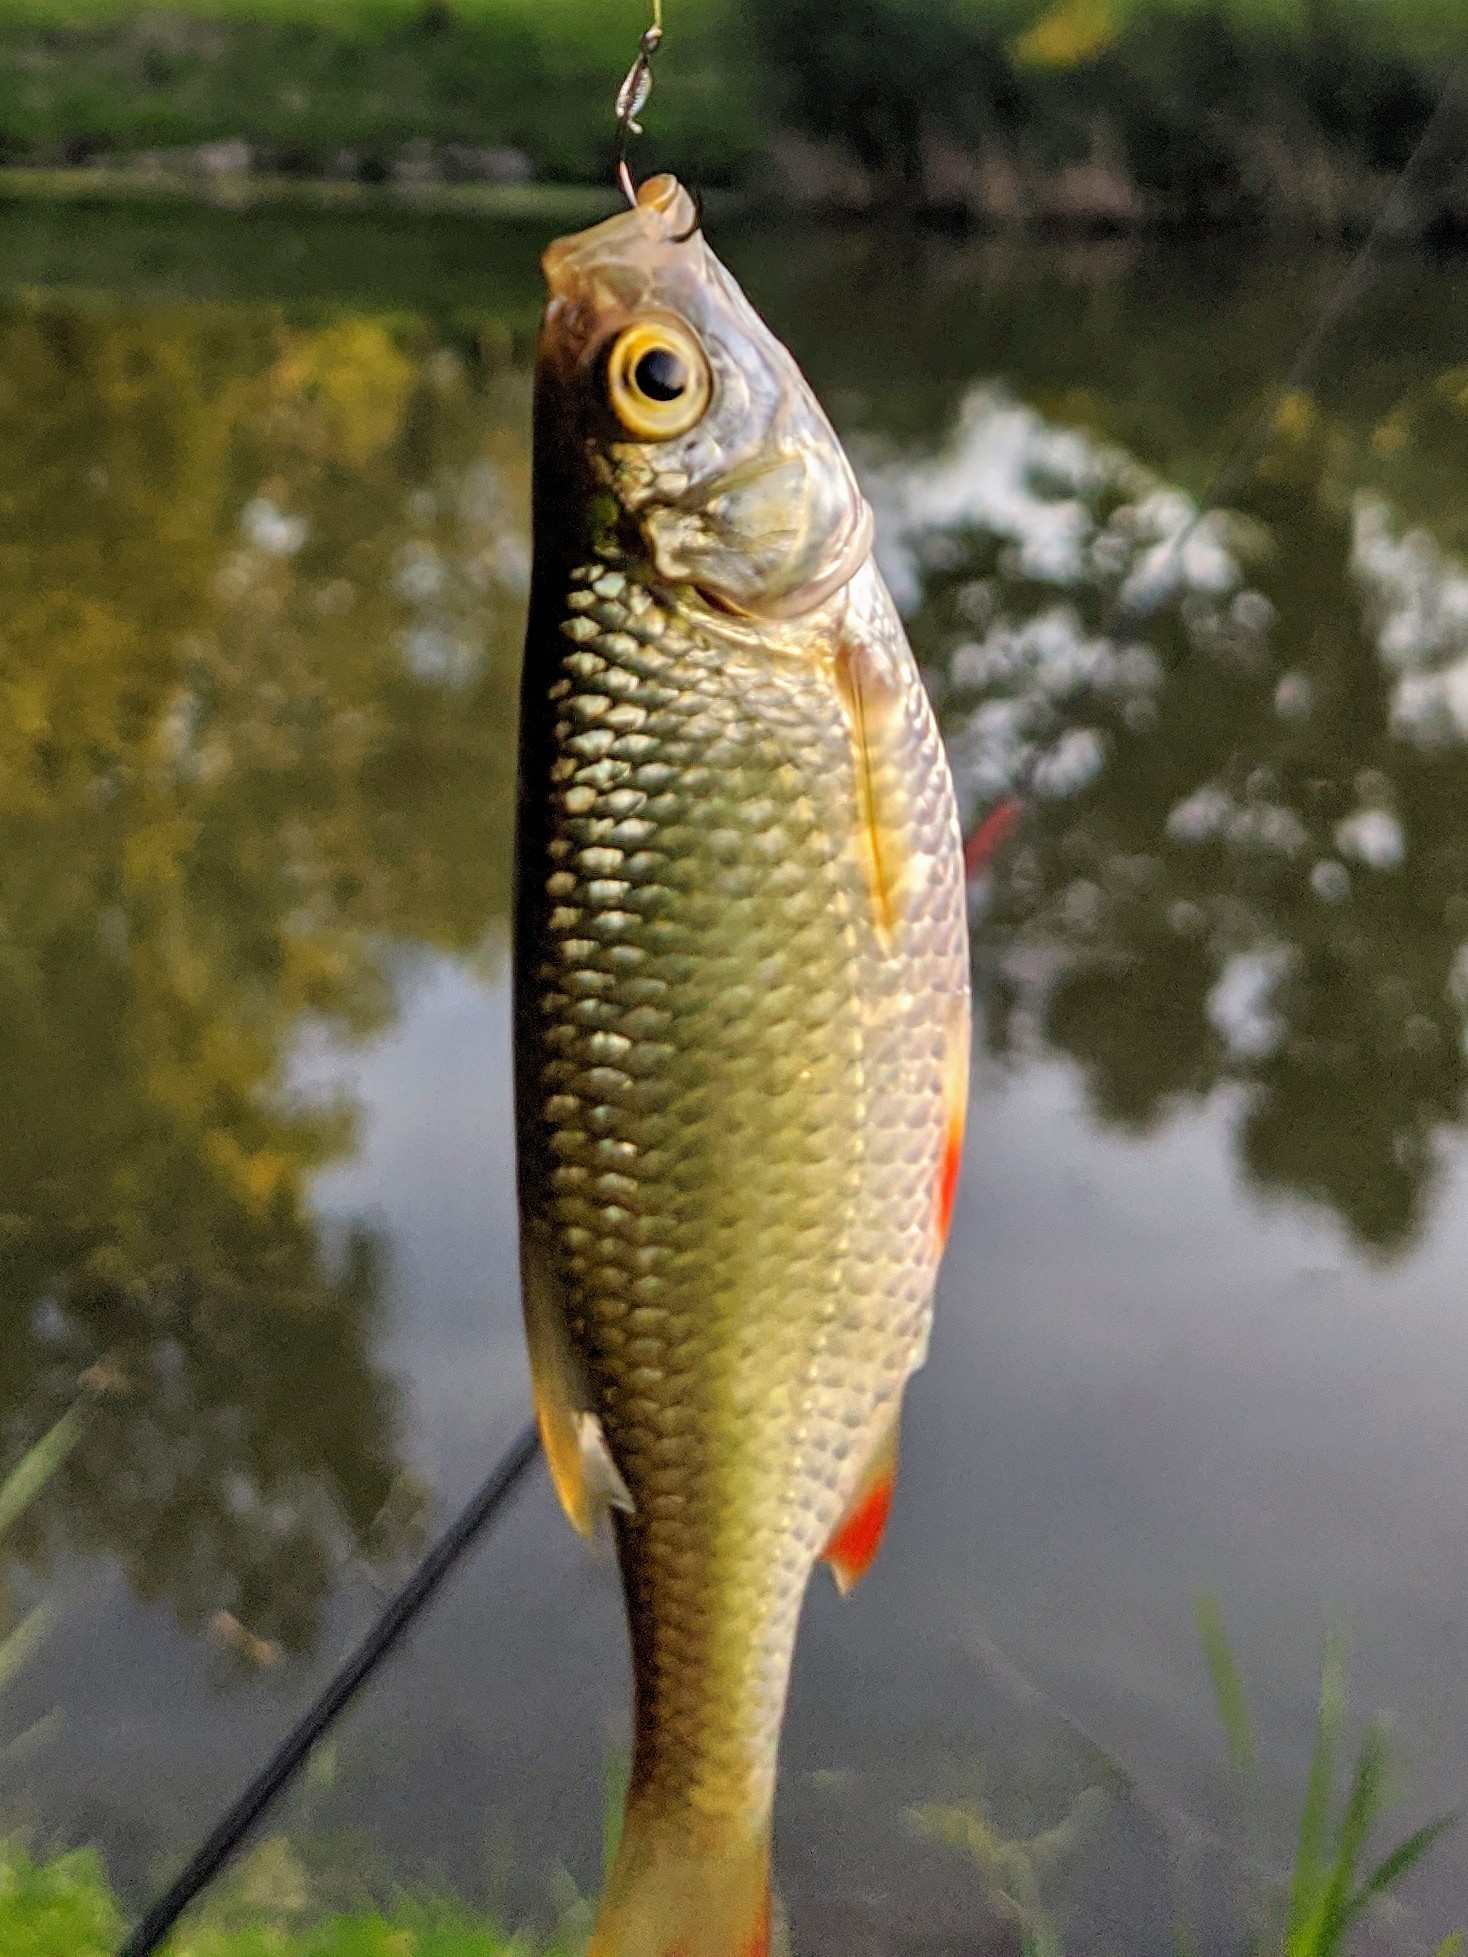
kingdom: Animalia
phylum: Chordata
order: Cypriniformes
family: Cyprinidae
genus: Scardinius
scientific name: Scardinius erythrophthalmus
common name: Rudd
